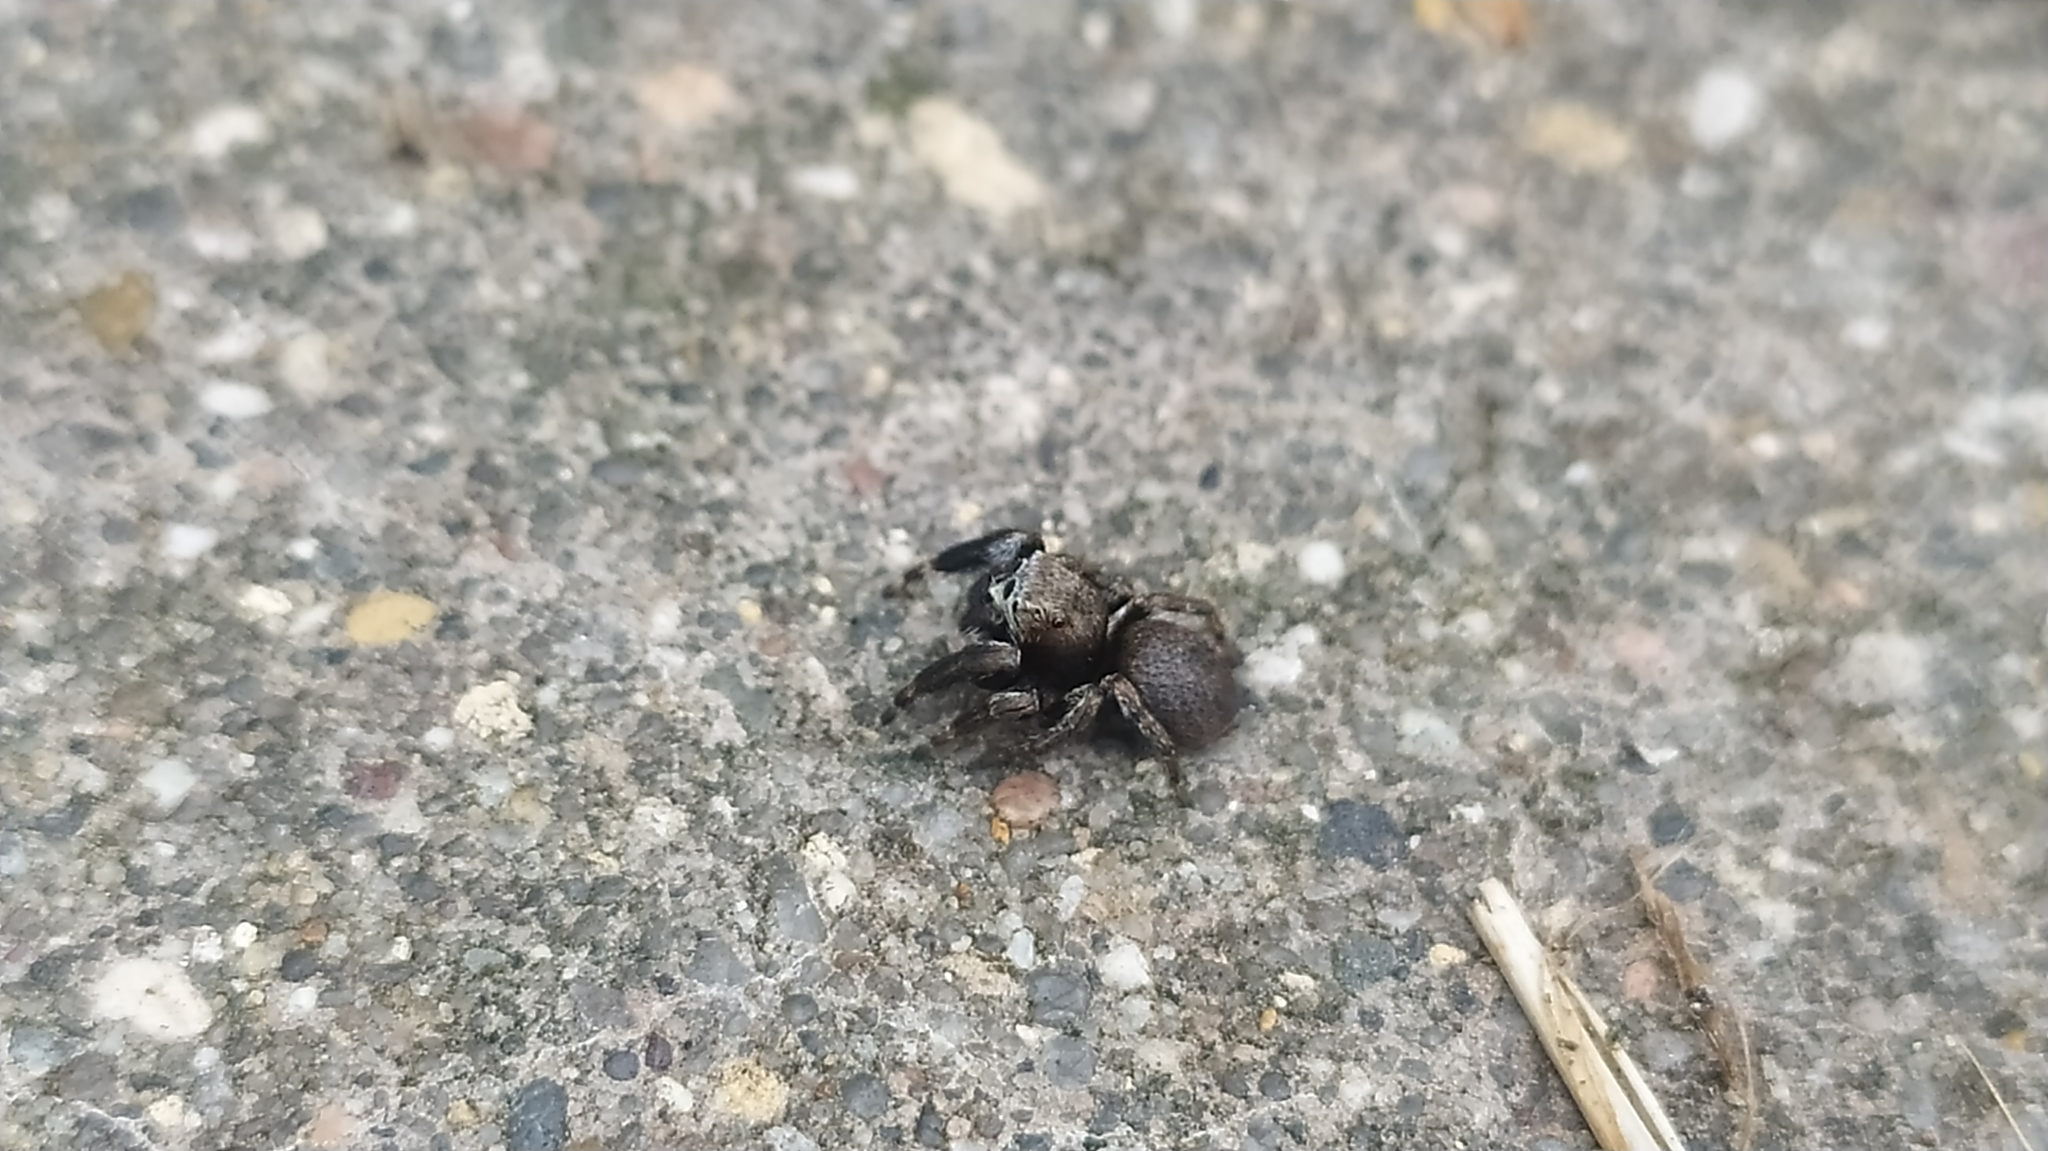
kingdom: Animalia
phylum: Arthropoda
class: Arachnida
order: Araneae
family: Salticidae
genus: Evarcha
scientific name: Evarcha arcuata
